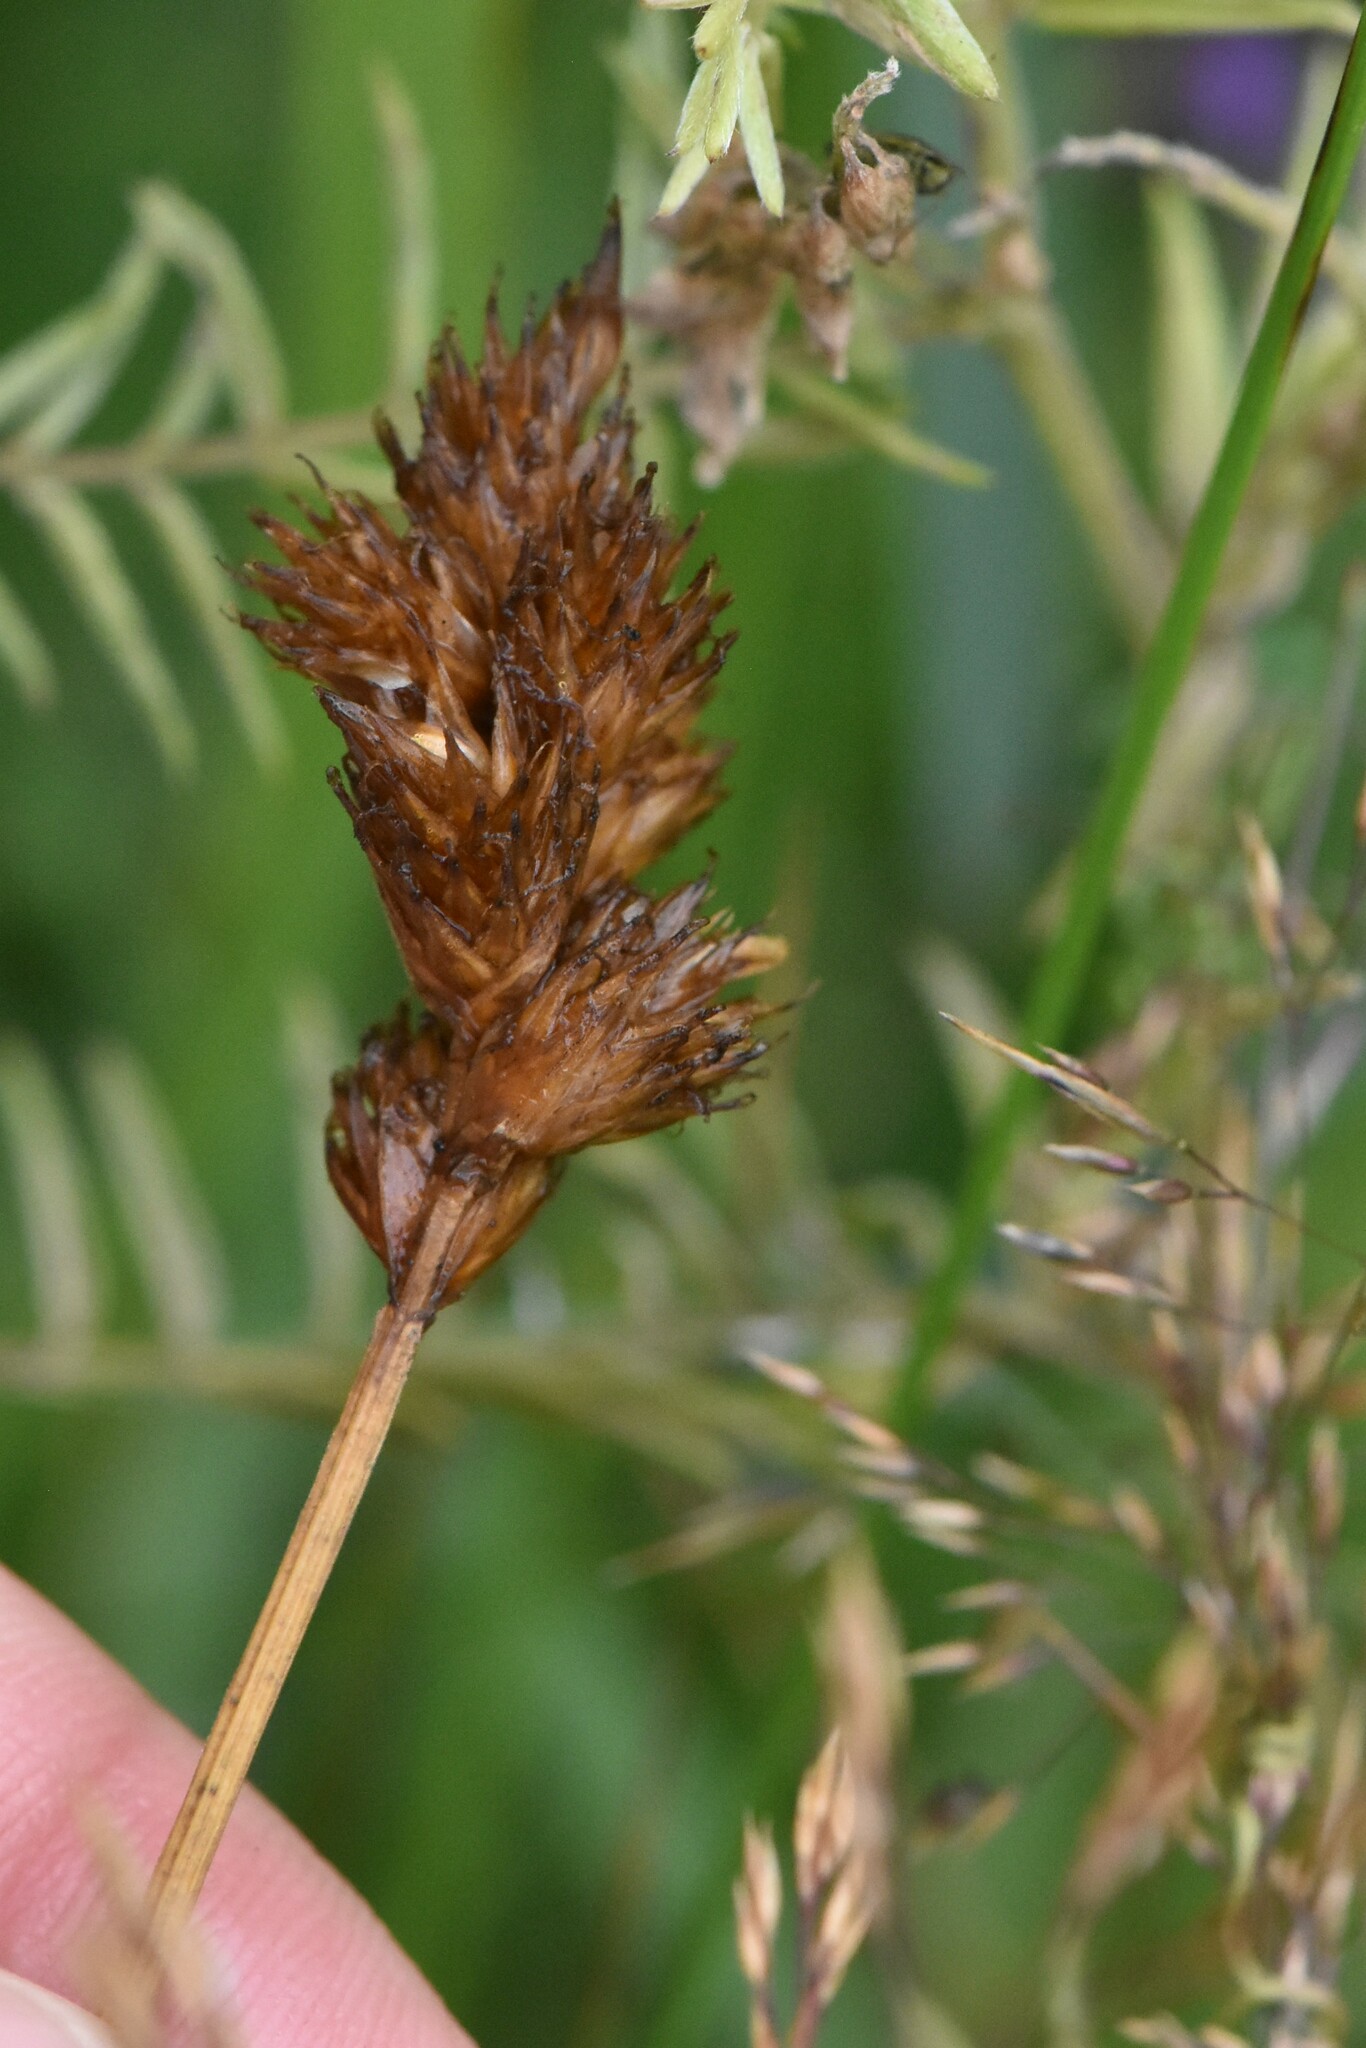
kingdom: Plantae
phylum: Tracheophyta
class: Liliopsida
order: Poales
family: Cyperaceae
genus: Carex
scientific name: Carex leporina
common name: Oval sedge
